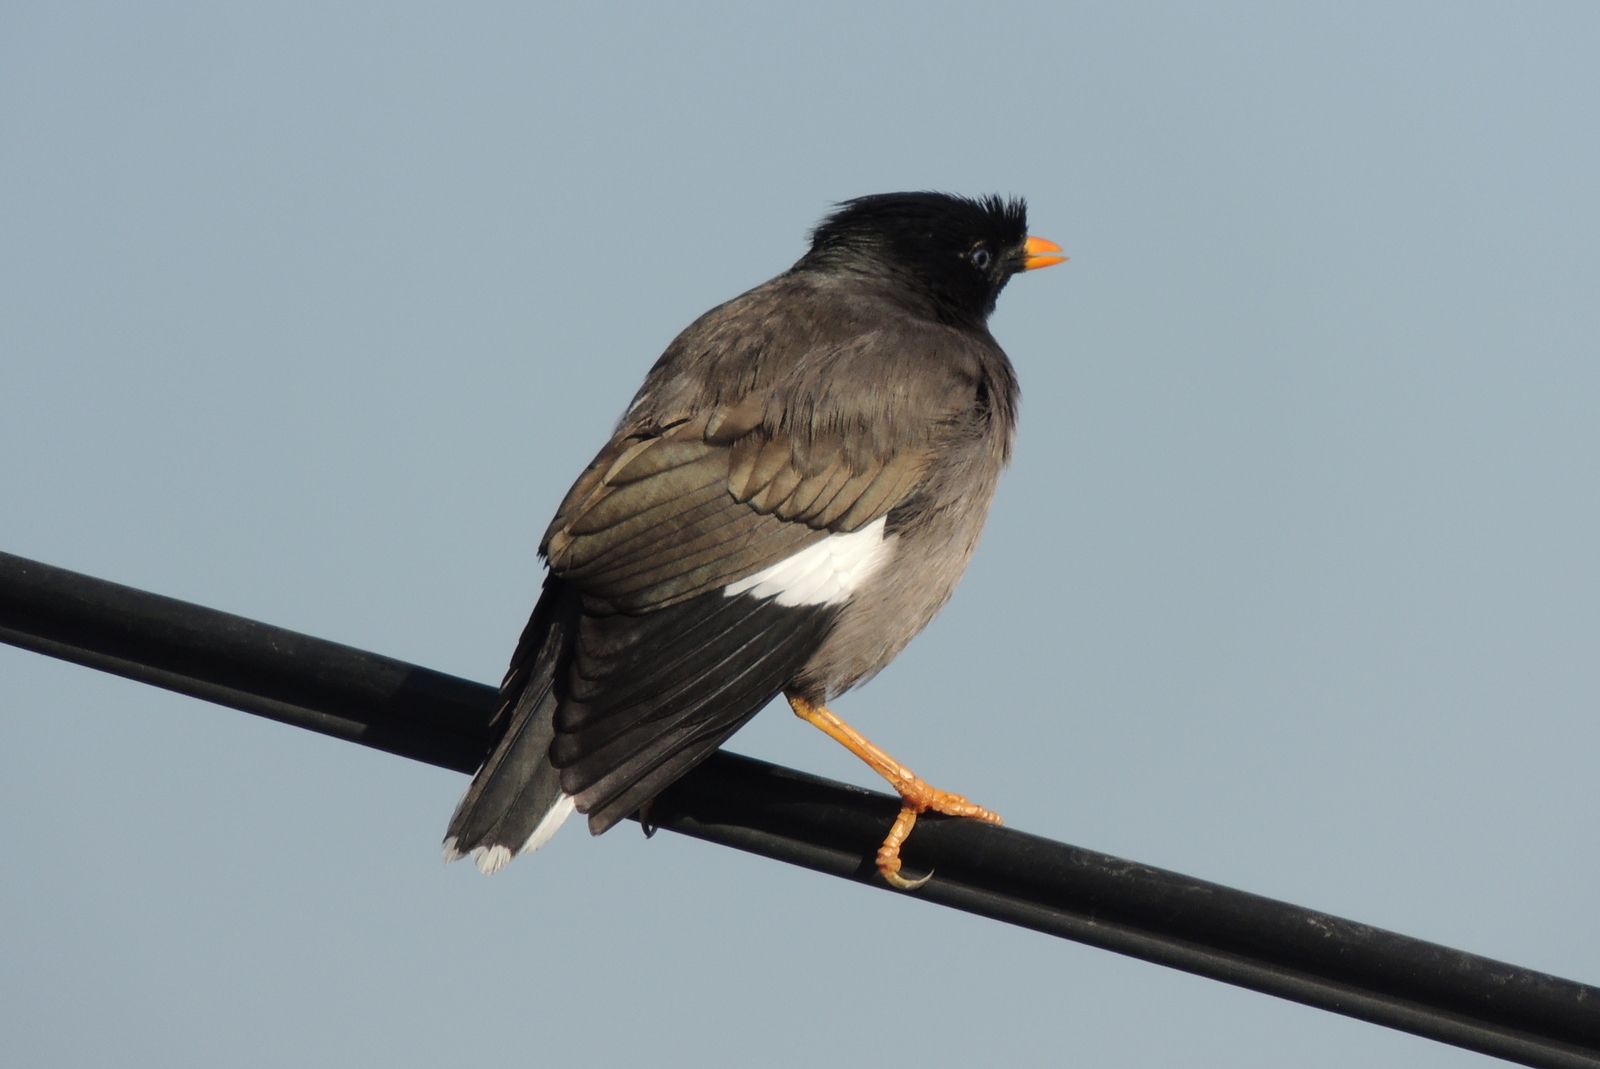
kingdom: Animalia
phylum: Chordata
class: Aves
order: Passeriformes
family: Sturnidae
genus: Acridotheres
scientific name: Acridotheres fuscus
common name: Jungle myna
